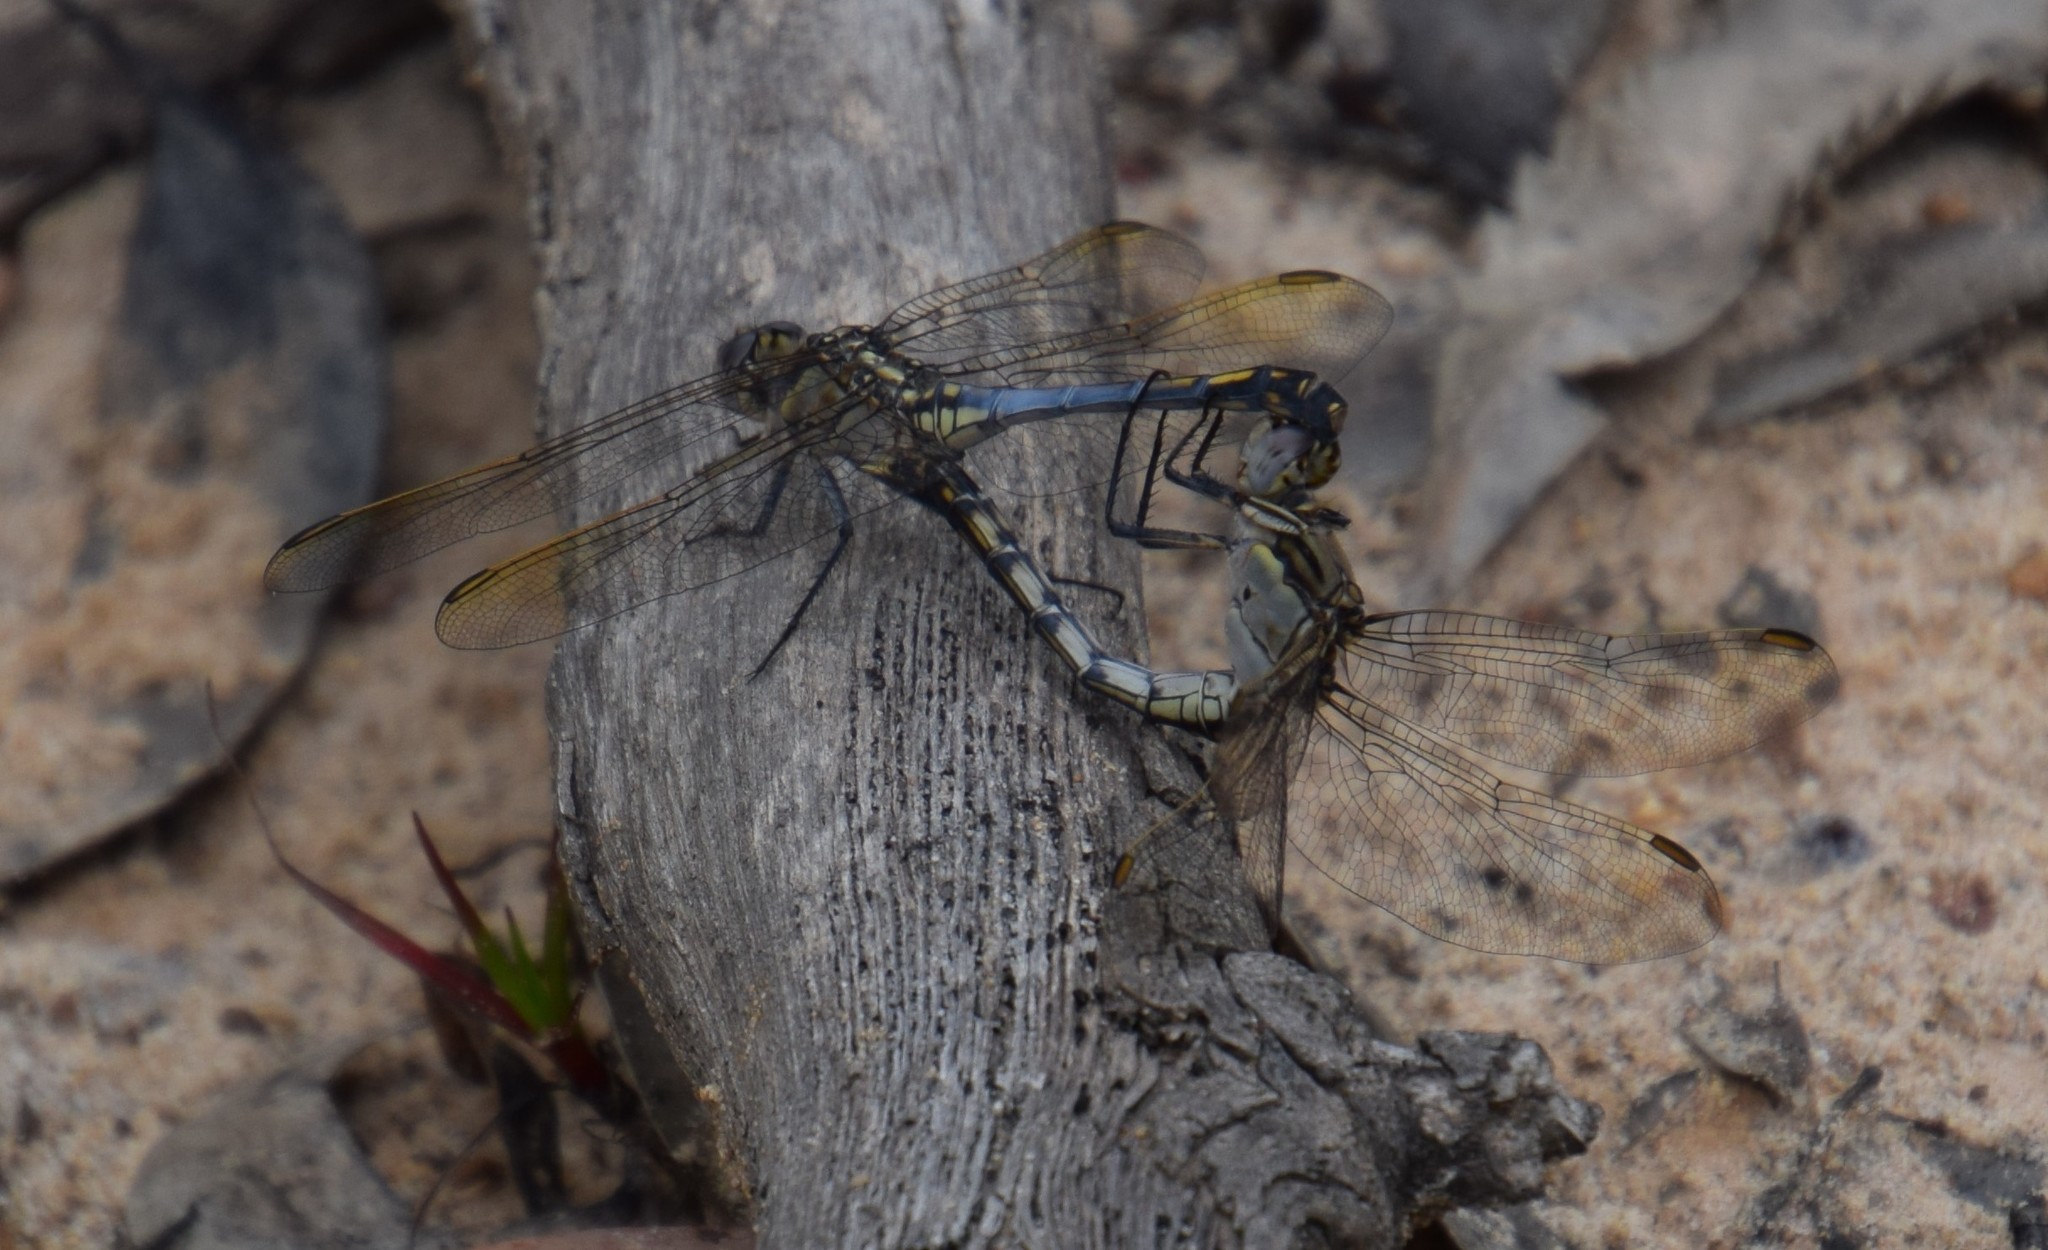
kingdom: Animalia
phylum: Arthropoda
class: Insecta
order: Odonata
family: Libellulidae
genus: Orthetrum
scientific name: Orthetrum caledonicum
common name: Blue skimmer
